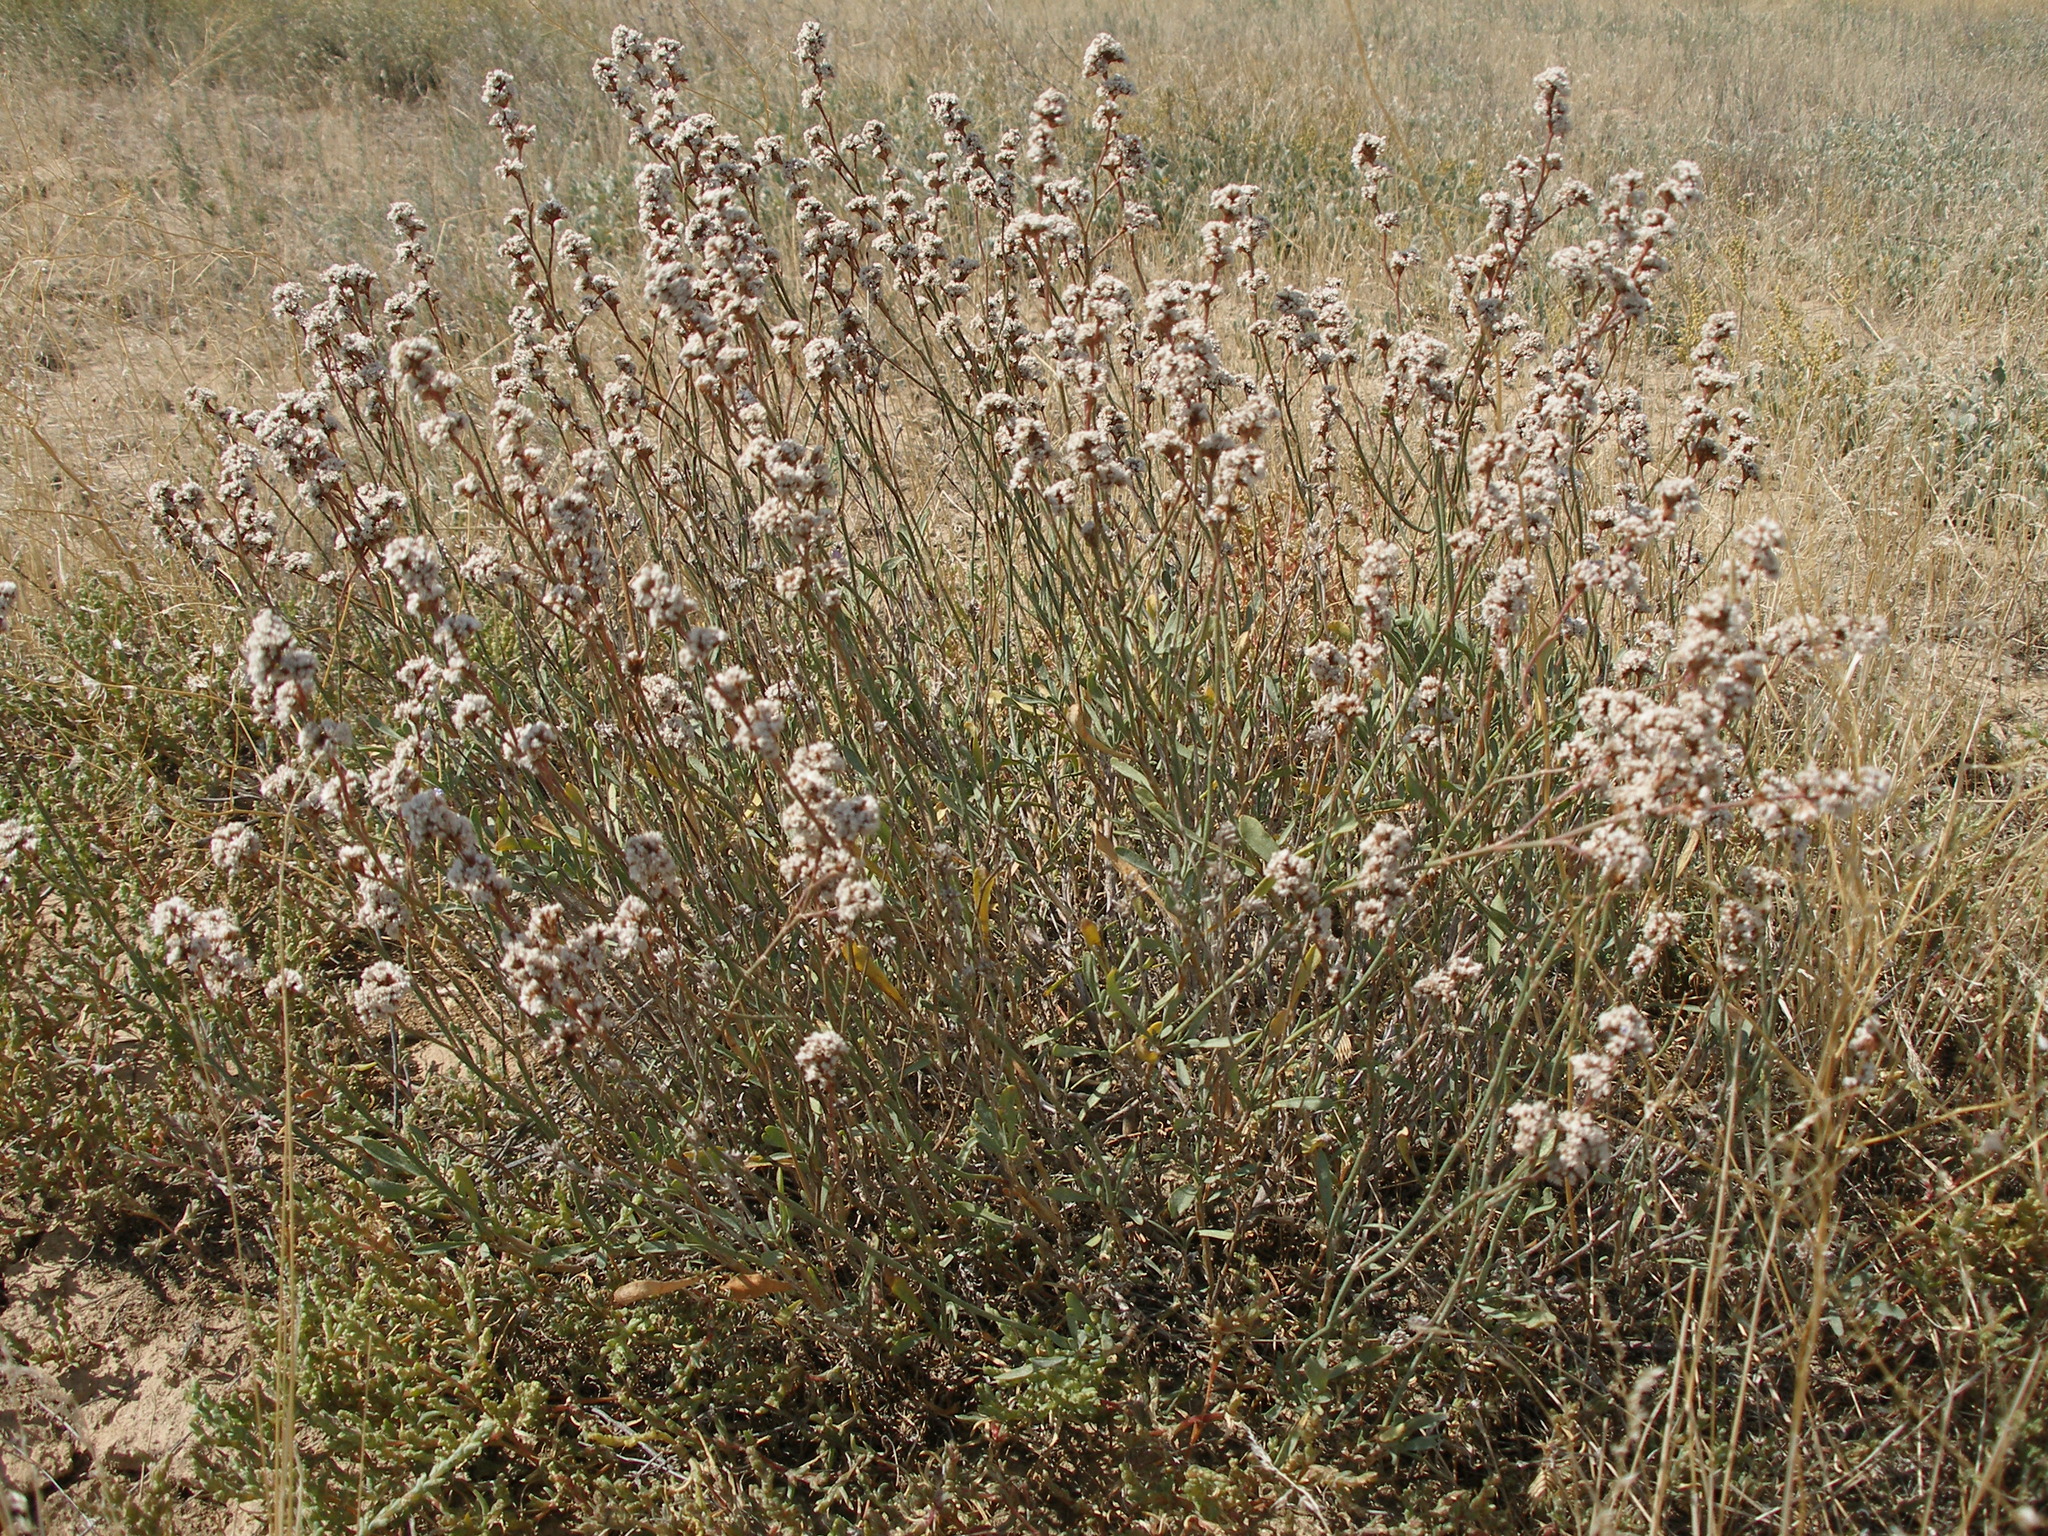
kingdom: Plantae
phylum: Tracheophyta
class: Magnoliopsida
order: Caryophyllales
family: Plumbaginaceae
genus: Limonium
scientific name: Limonium suffruticosum
